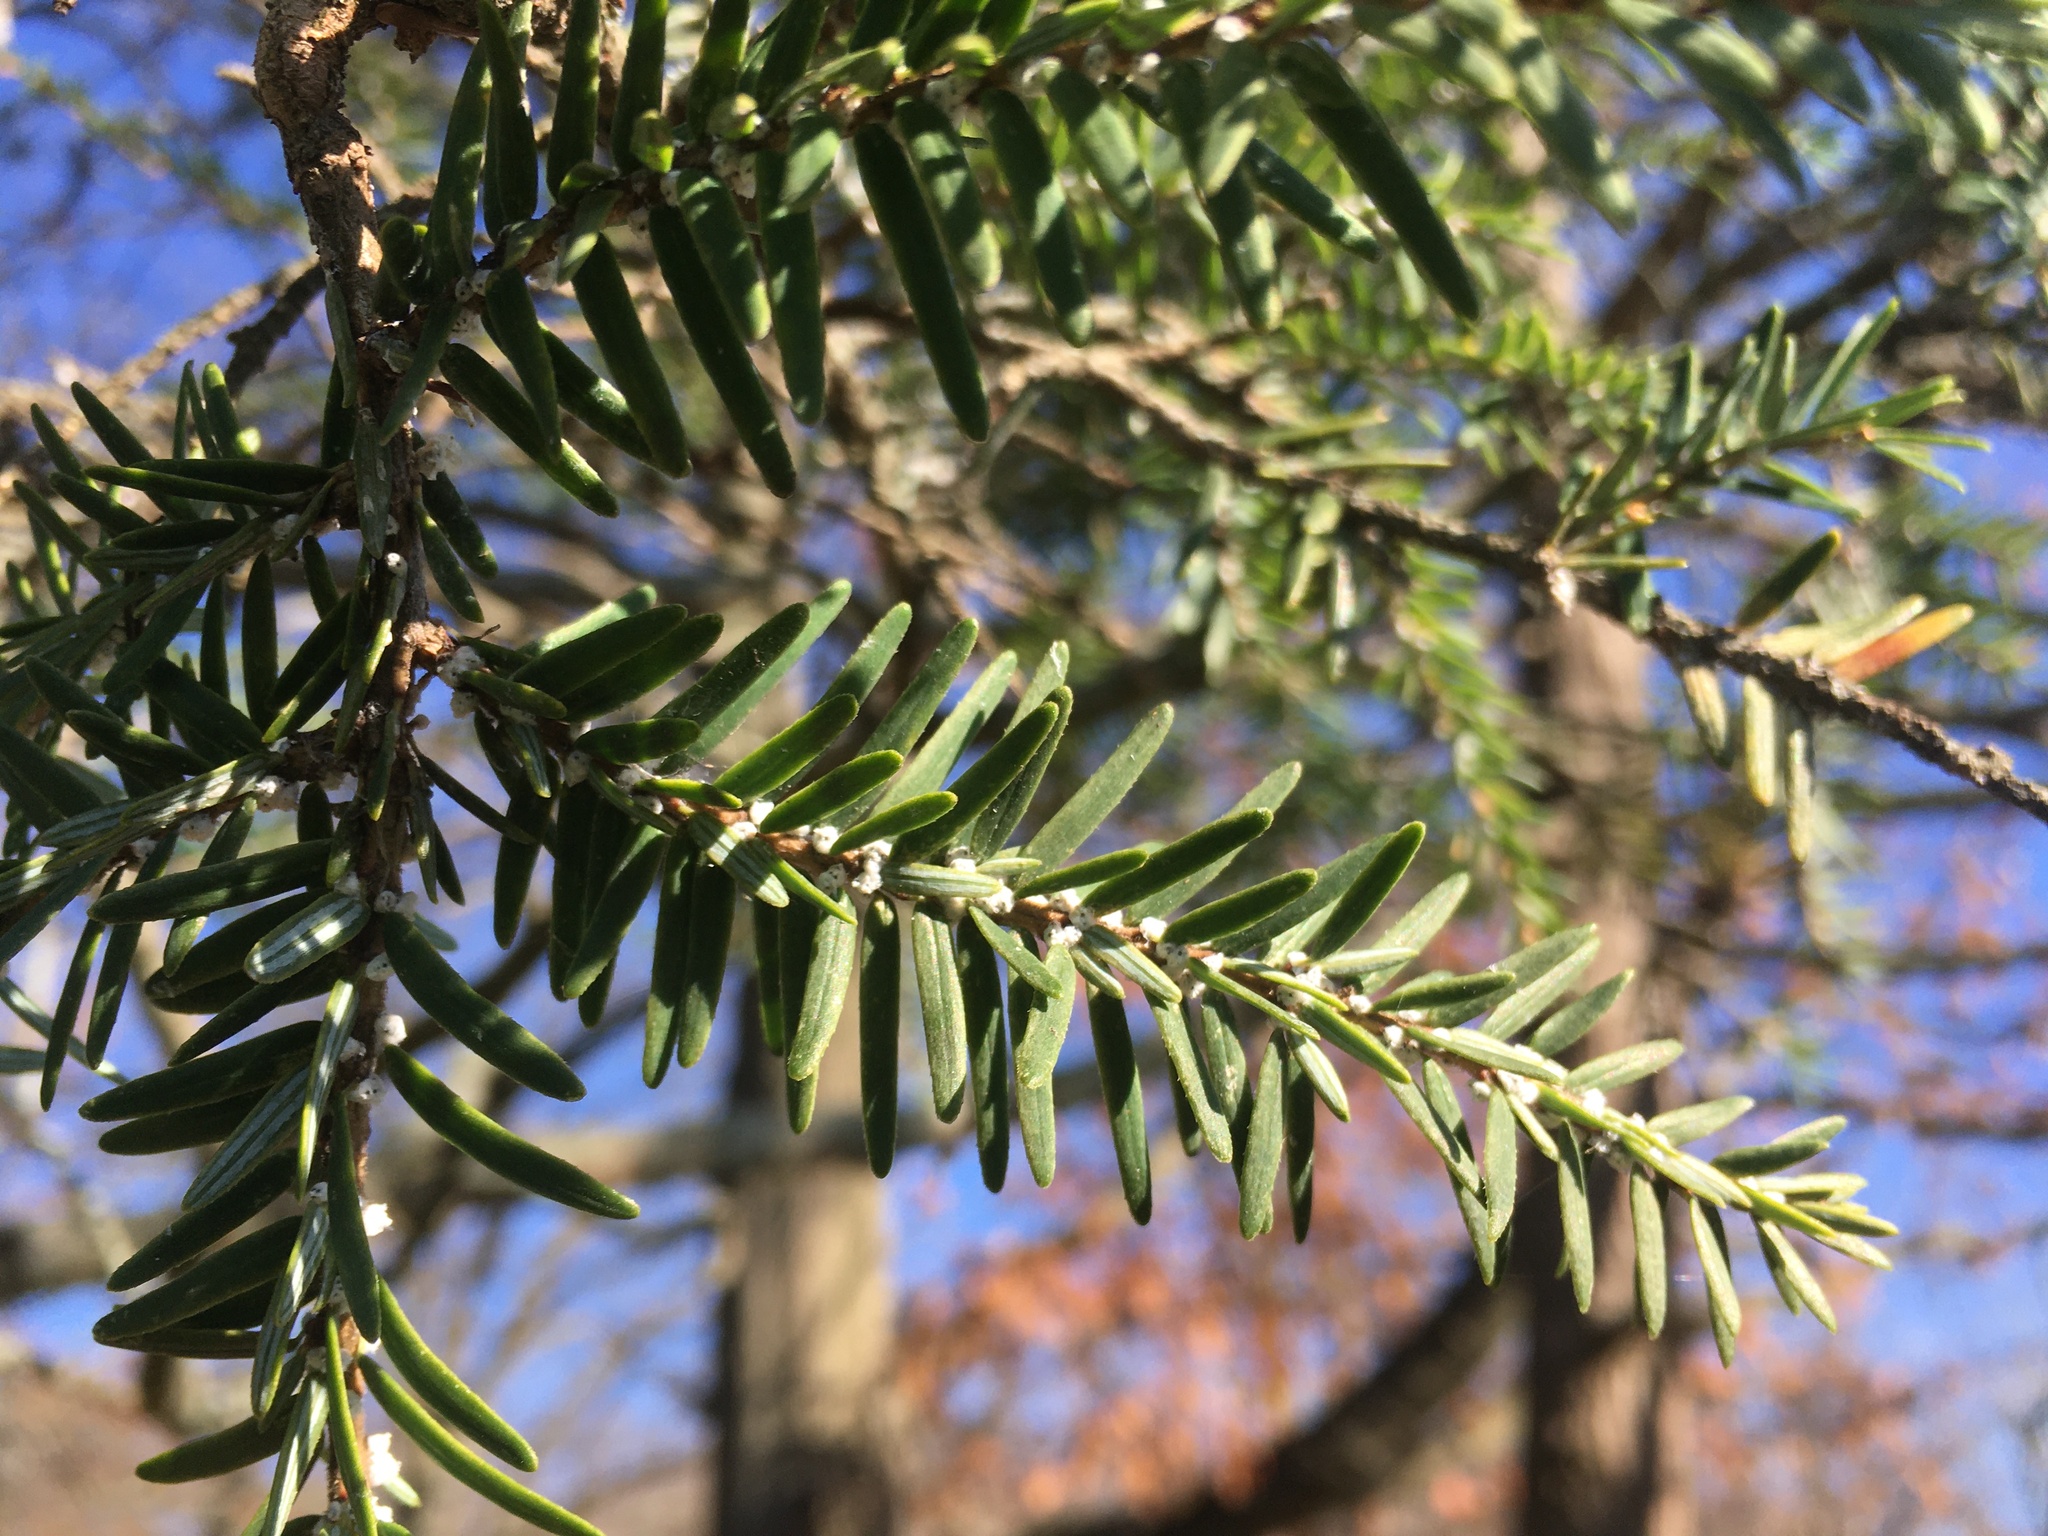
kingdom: Animalia
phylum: Arthropoda
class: Insecta
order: Hemiptera
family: Adelgidae
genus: Adelges
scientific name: Adelges tsugae
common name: Hemlock woolly adelgid
